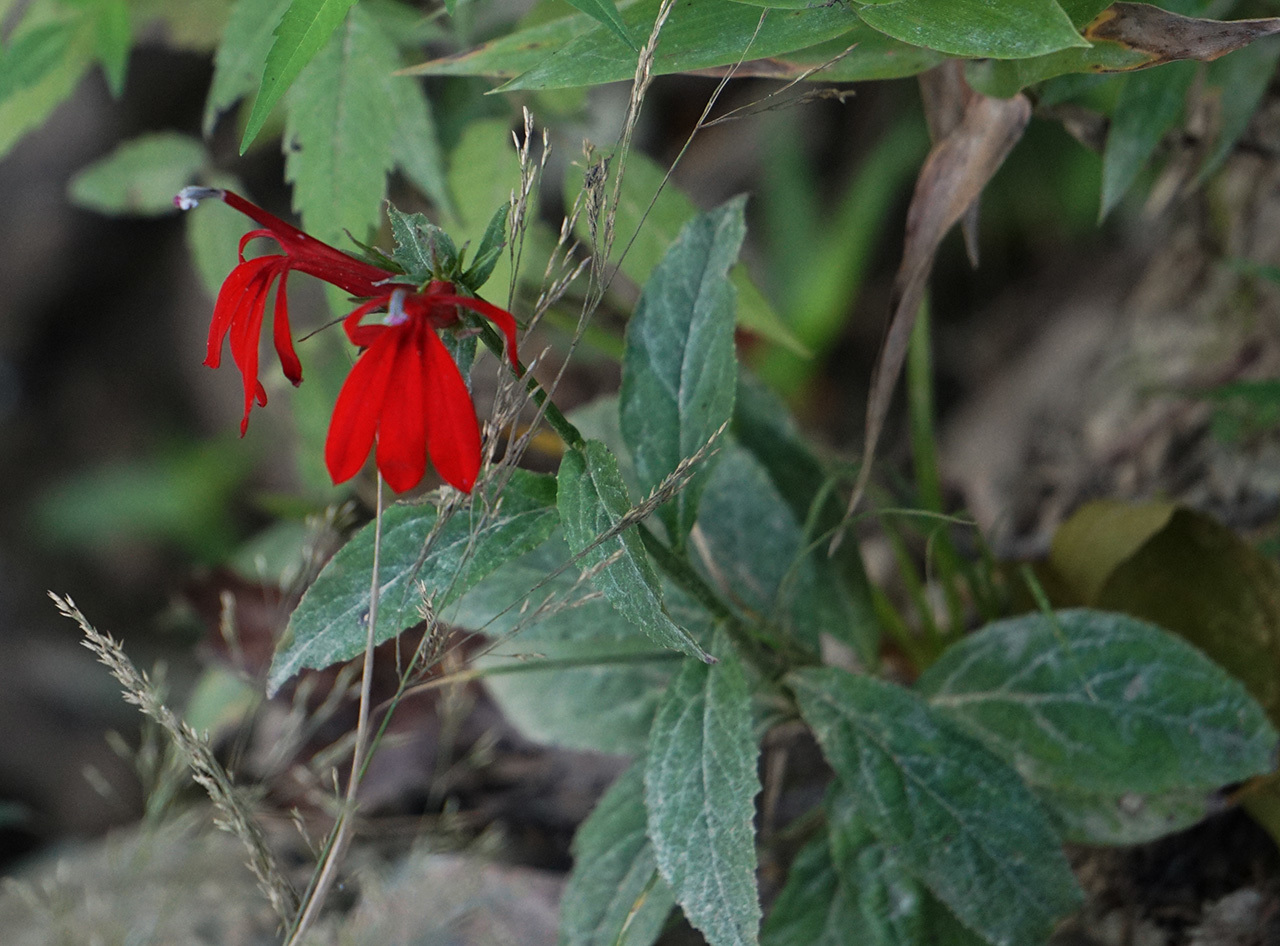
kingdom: Plantae
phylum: Tracheophyta
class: Magnoliopsida
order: Asterales
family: Campanulaceae
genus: Lobelia
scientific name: Lobelia cardinalis
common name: Cardinal flower
